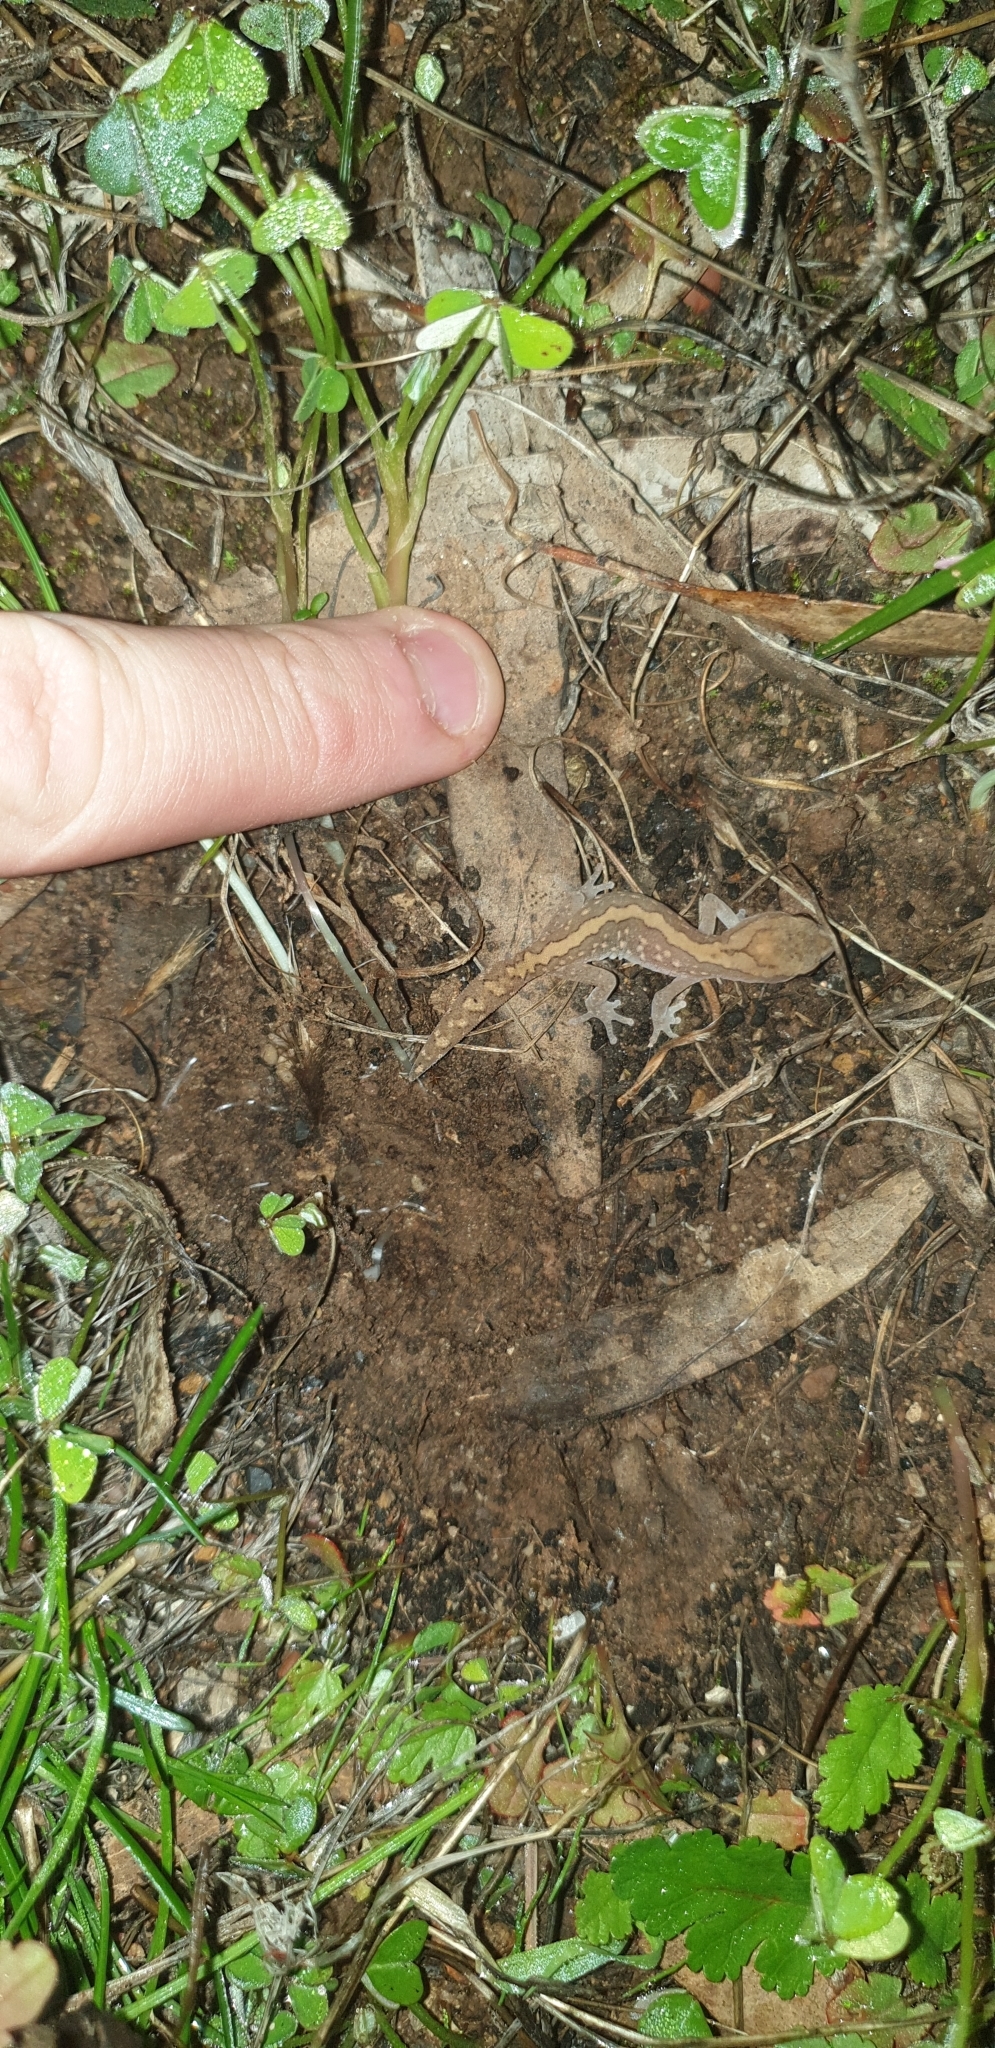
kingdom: Animalia
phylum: Chordata
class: Squamata
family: Diplodactylidae
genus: Diplodactylus
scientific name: Diplodactylus furcosus
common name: Ranges stone gecko
